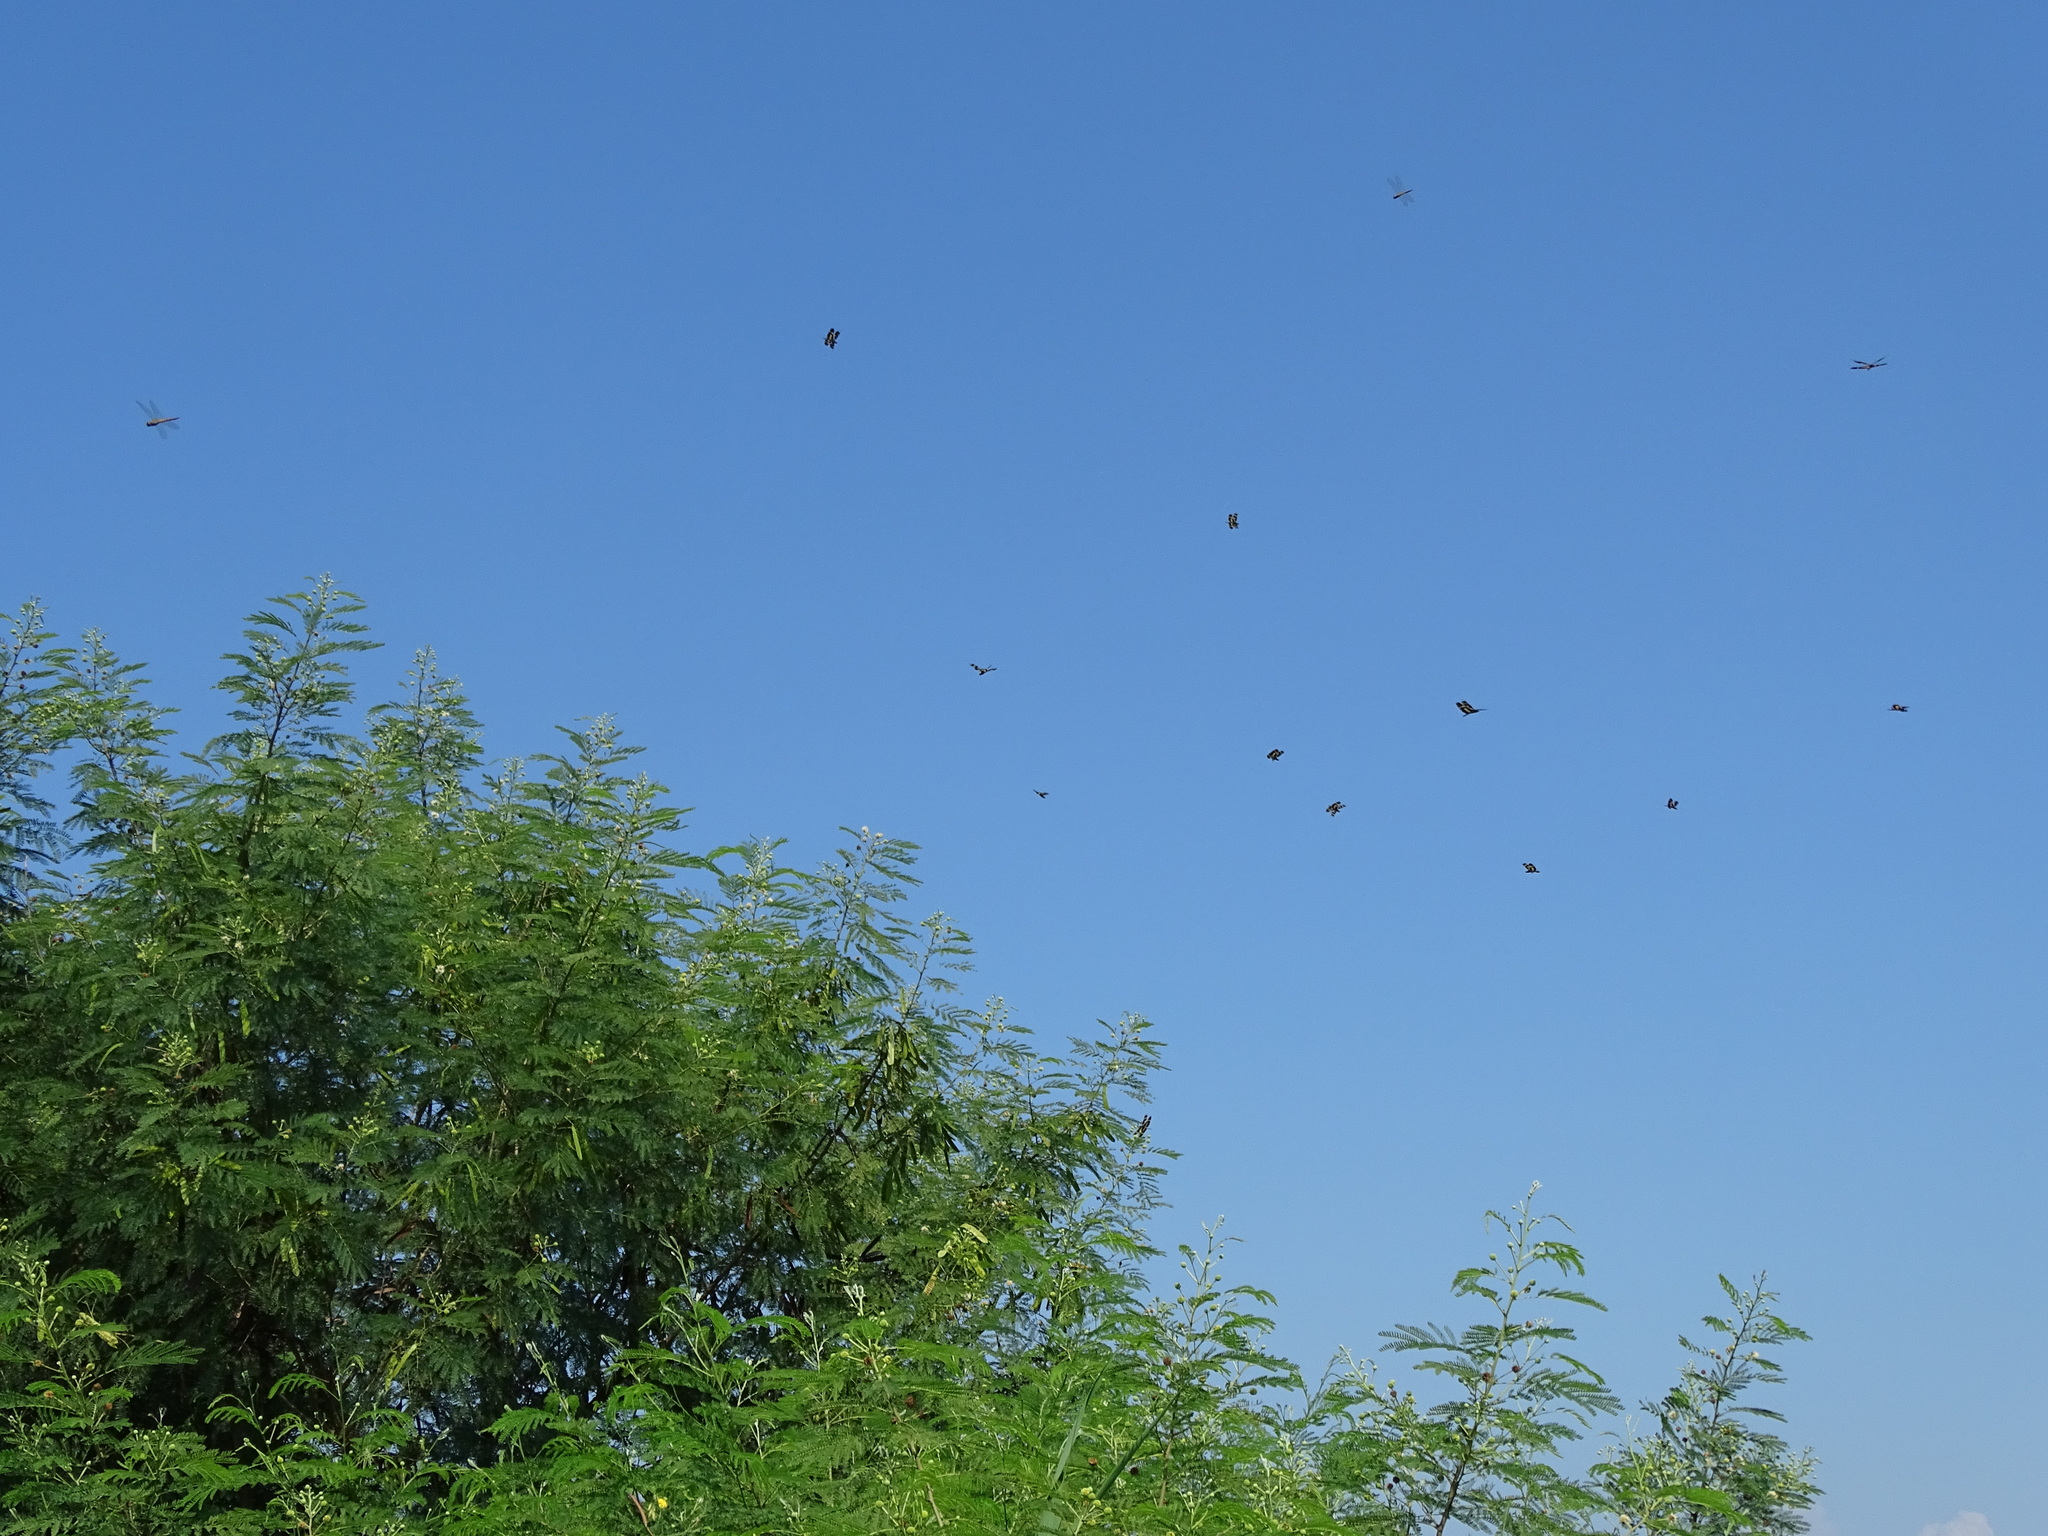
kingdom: Animalia
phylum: Arthropoda
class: Insecta
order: Odonata
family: Libellulidae
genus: Rhyothemis
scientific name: Rhyothemis variegata
